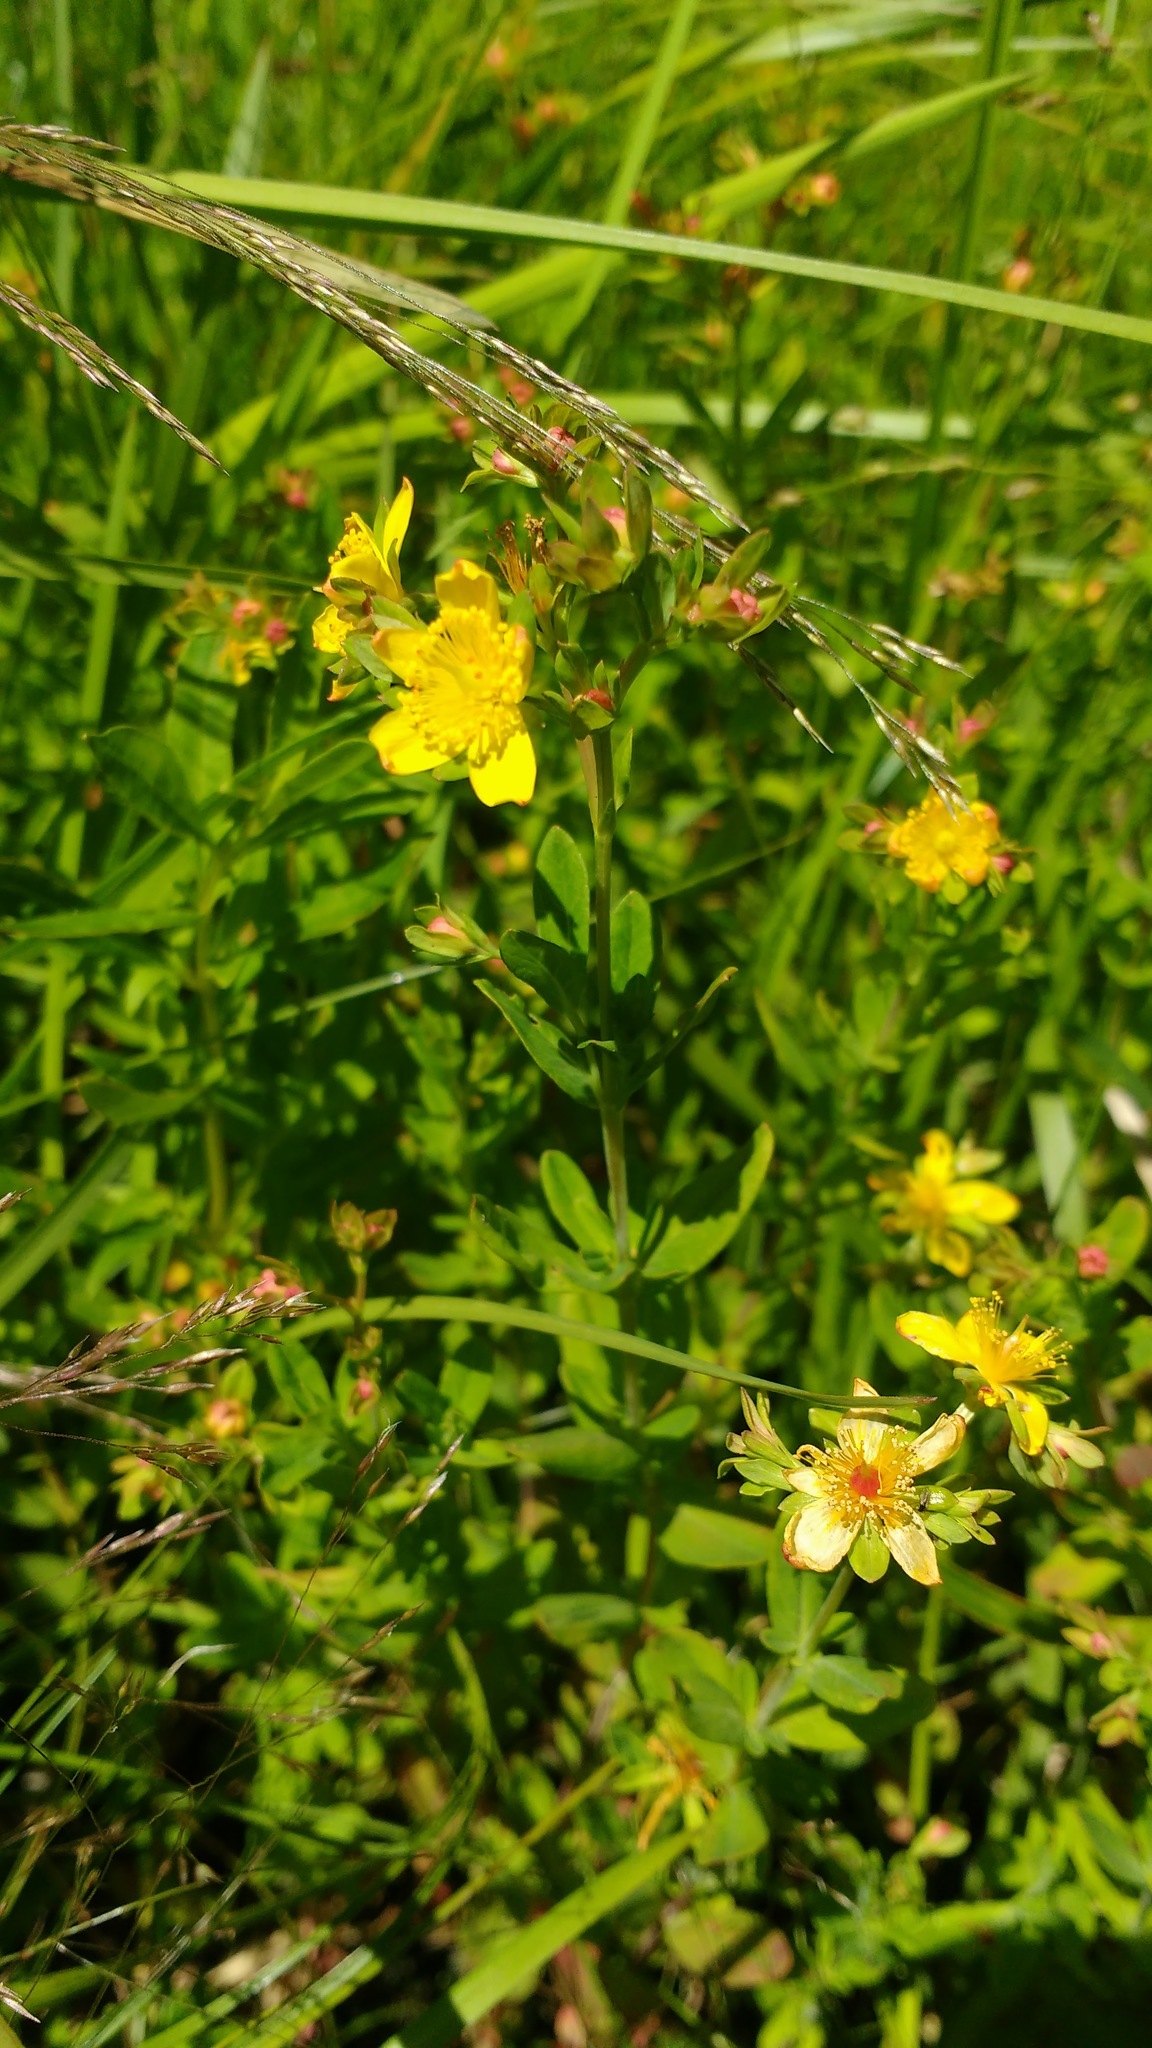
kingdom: Plantae
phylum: Tracheophyta
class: Magnoliopsida
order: Malpighiales
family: Hypericaceae
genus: Hypericum
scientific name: Hypericum ellipticum
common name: Elliptic st. john's-wort
